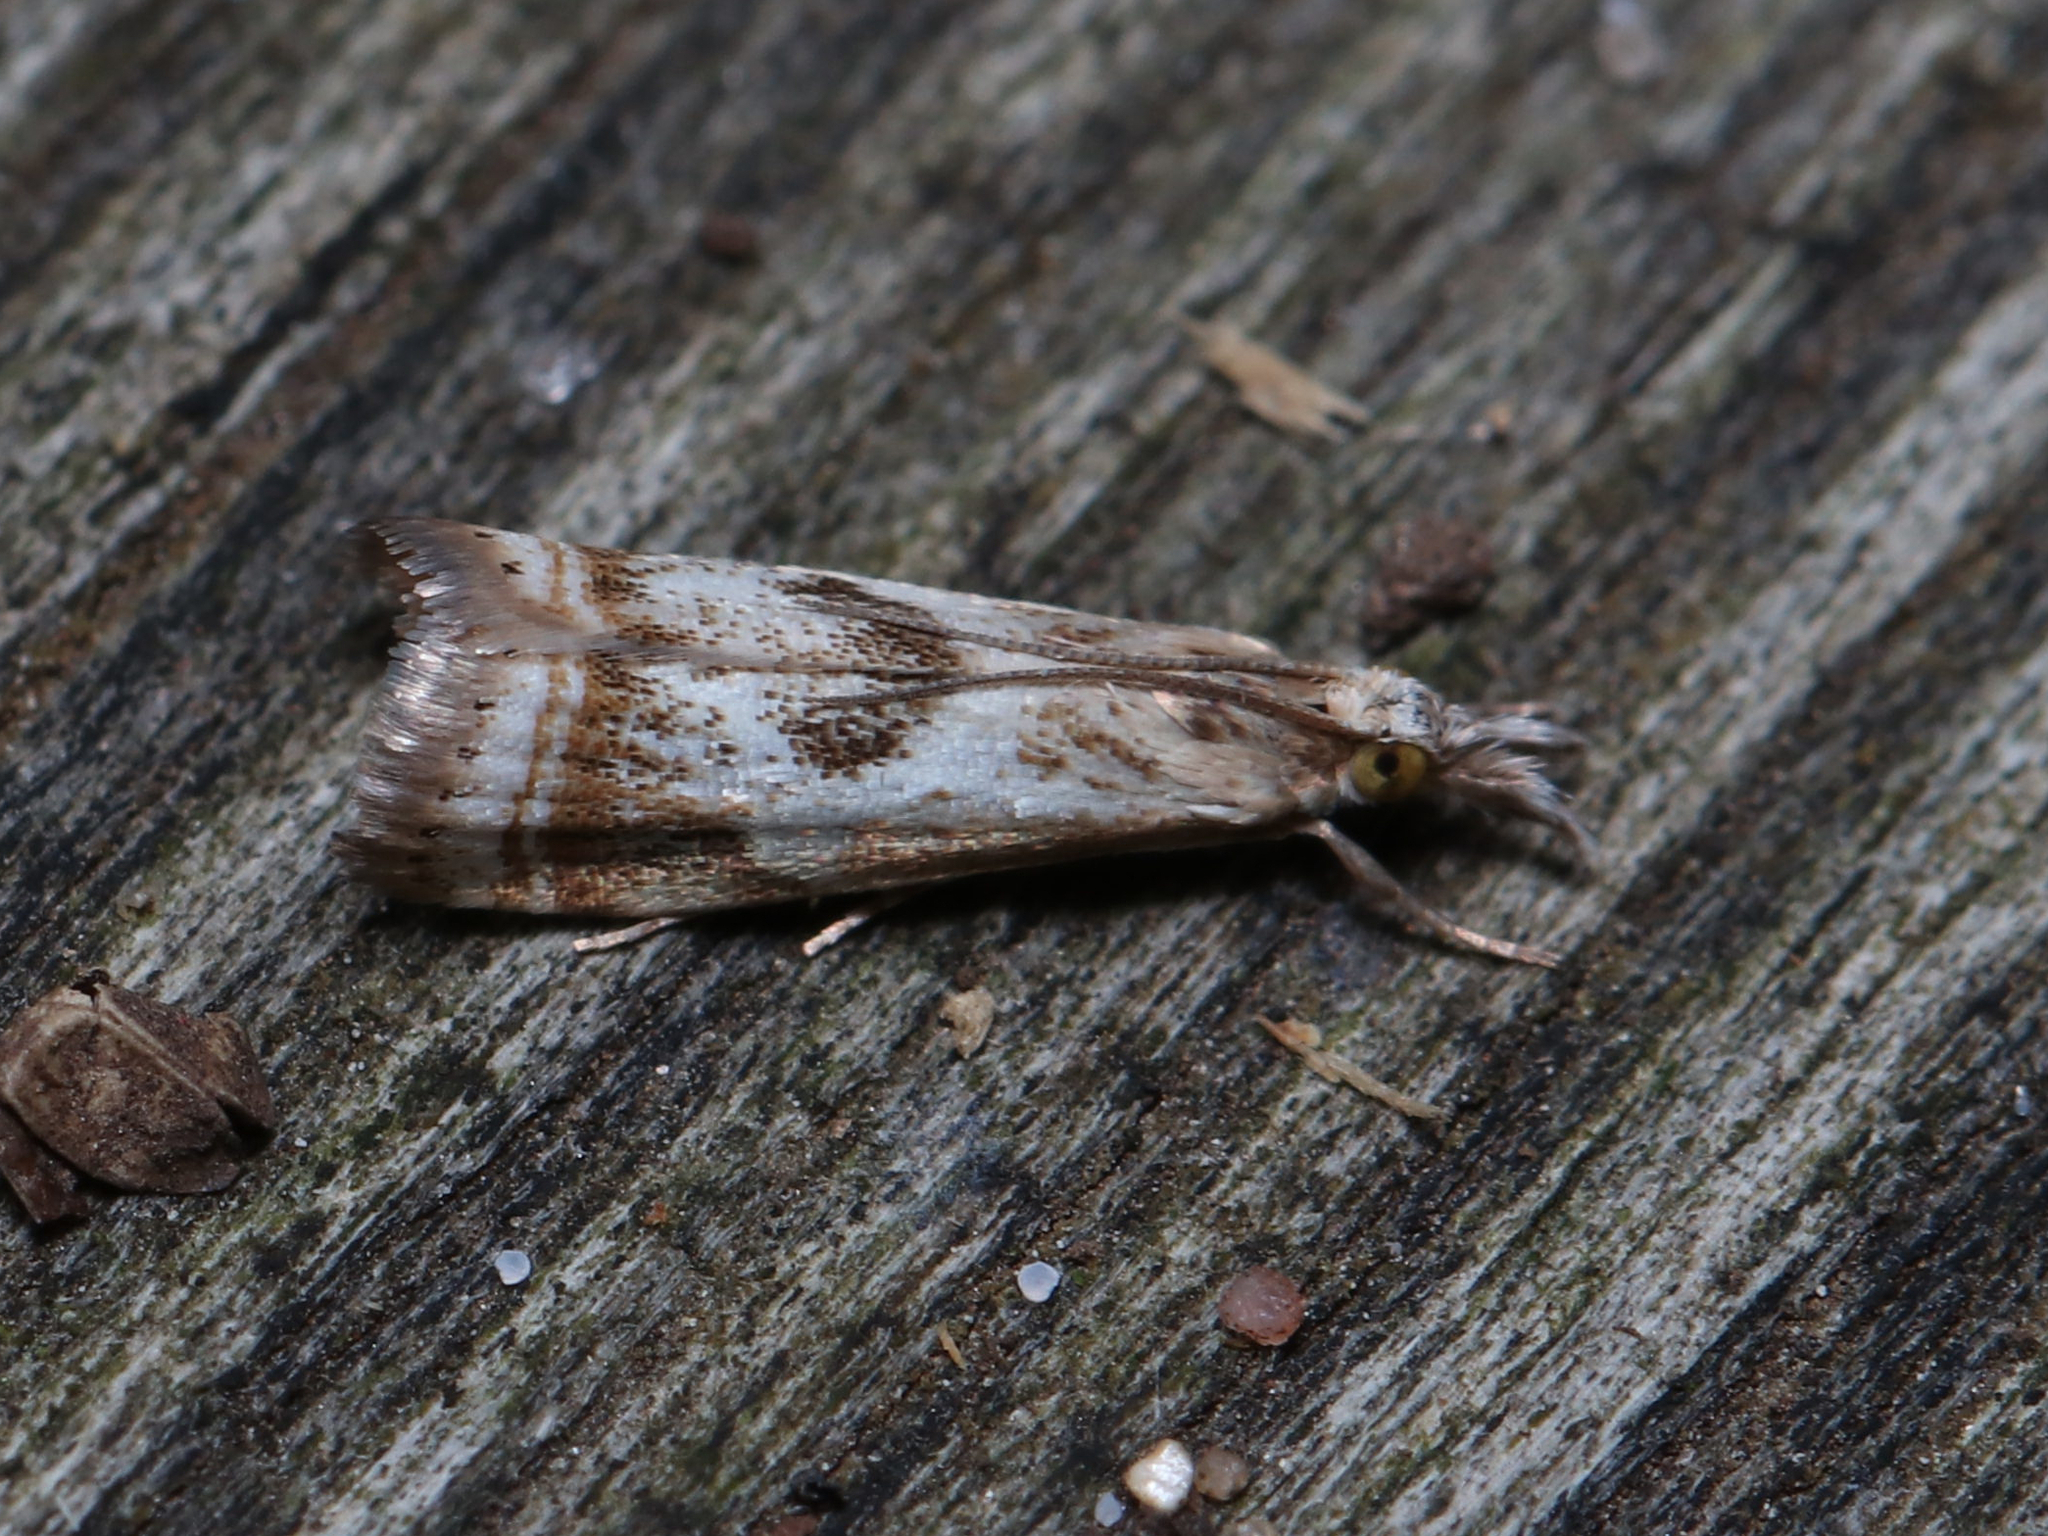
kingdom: Animalia
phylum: Arthropoda
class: Insecta
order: Lepidoptera
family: Crambidae
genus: Microcrambus
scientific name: Microcrambus elegans
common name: Elegant grass-veneer
